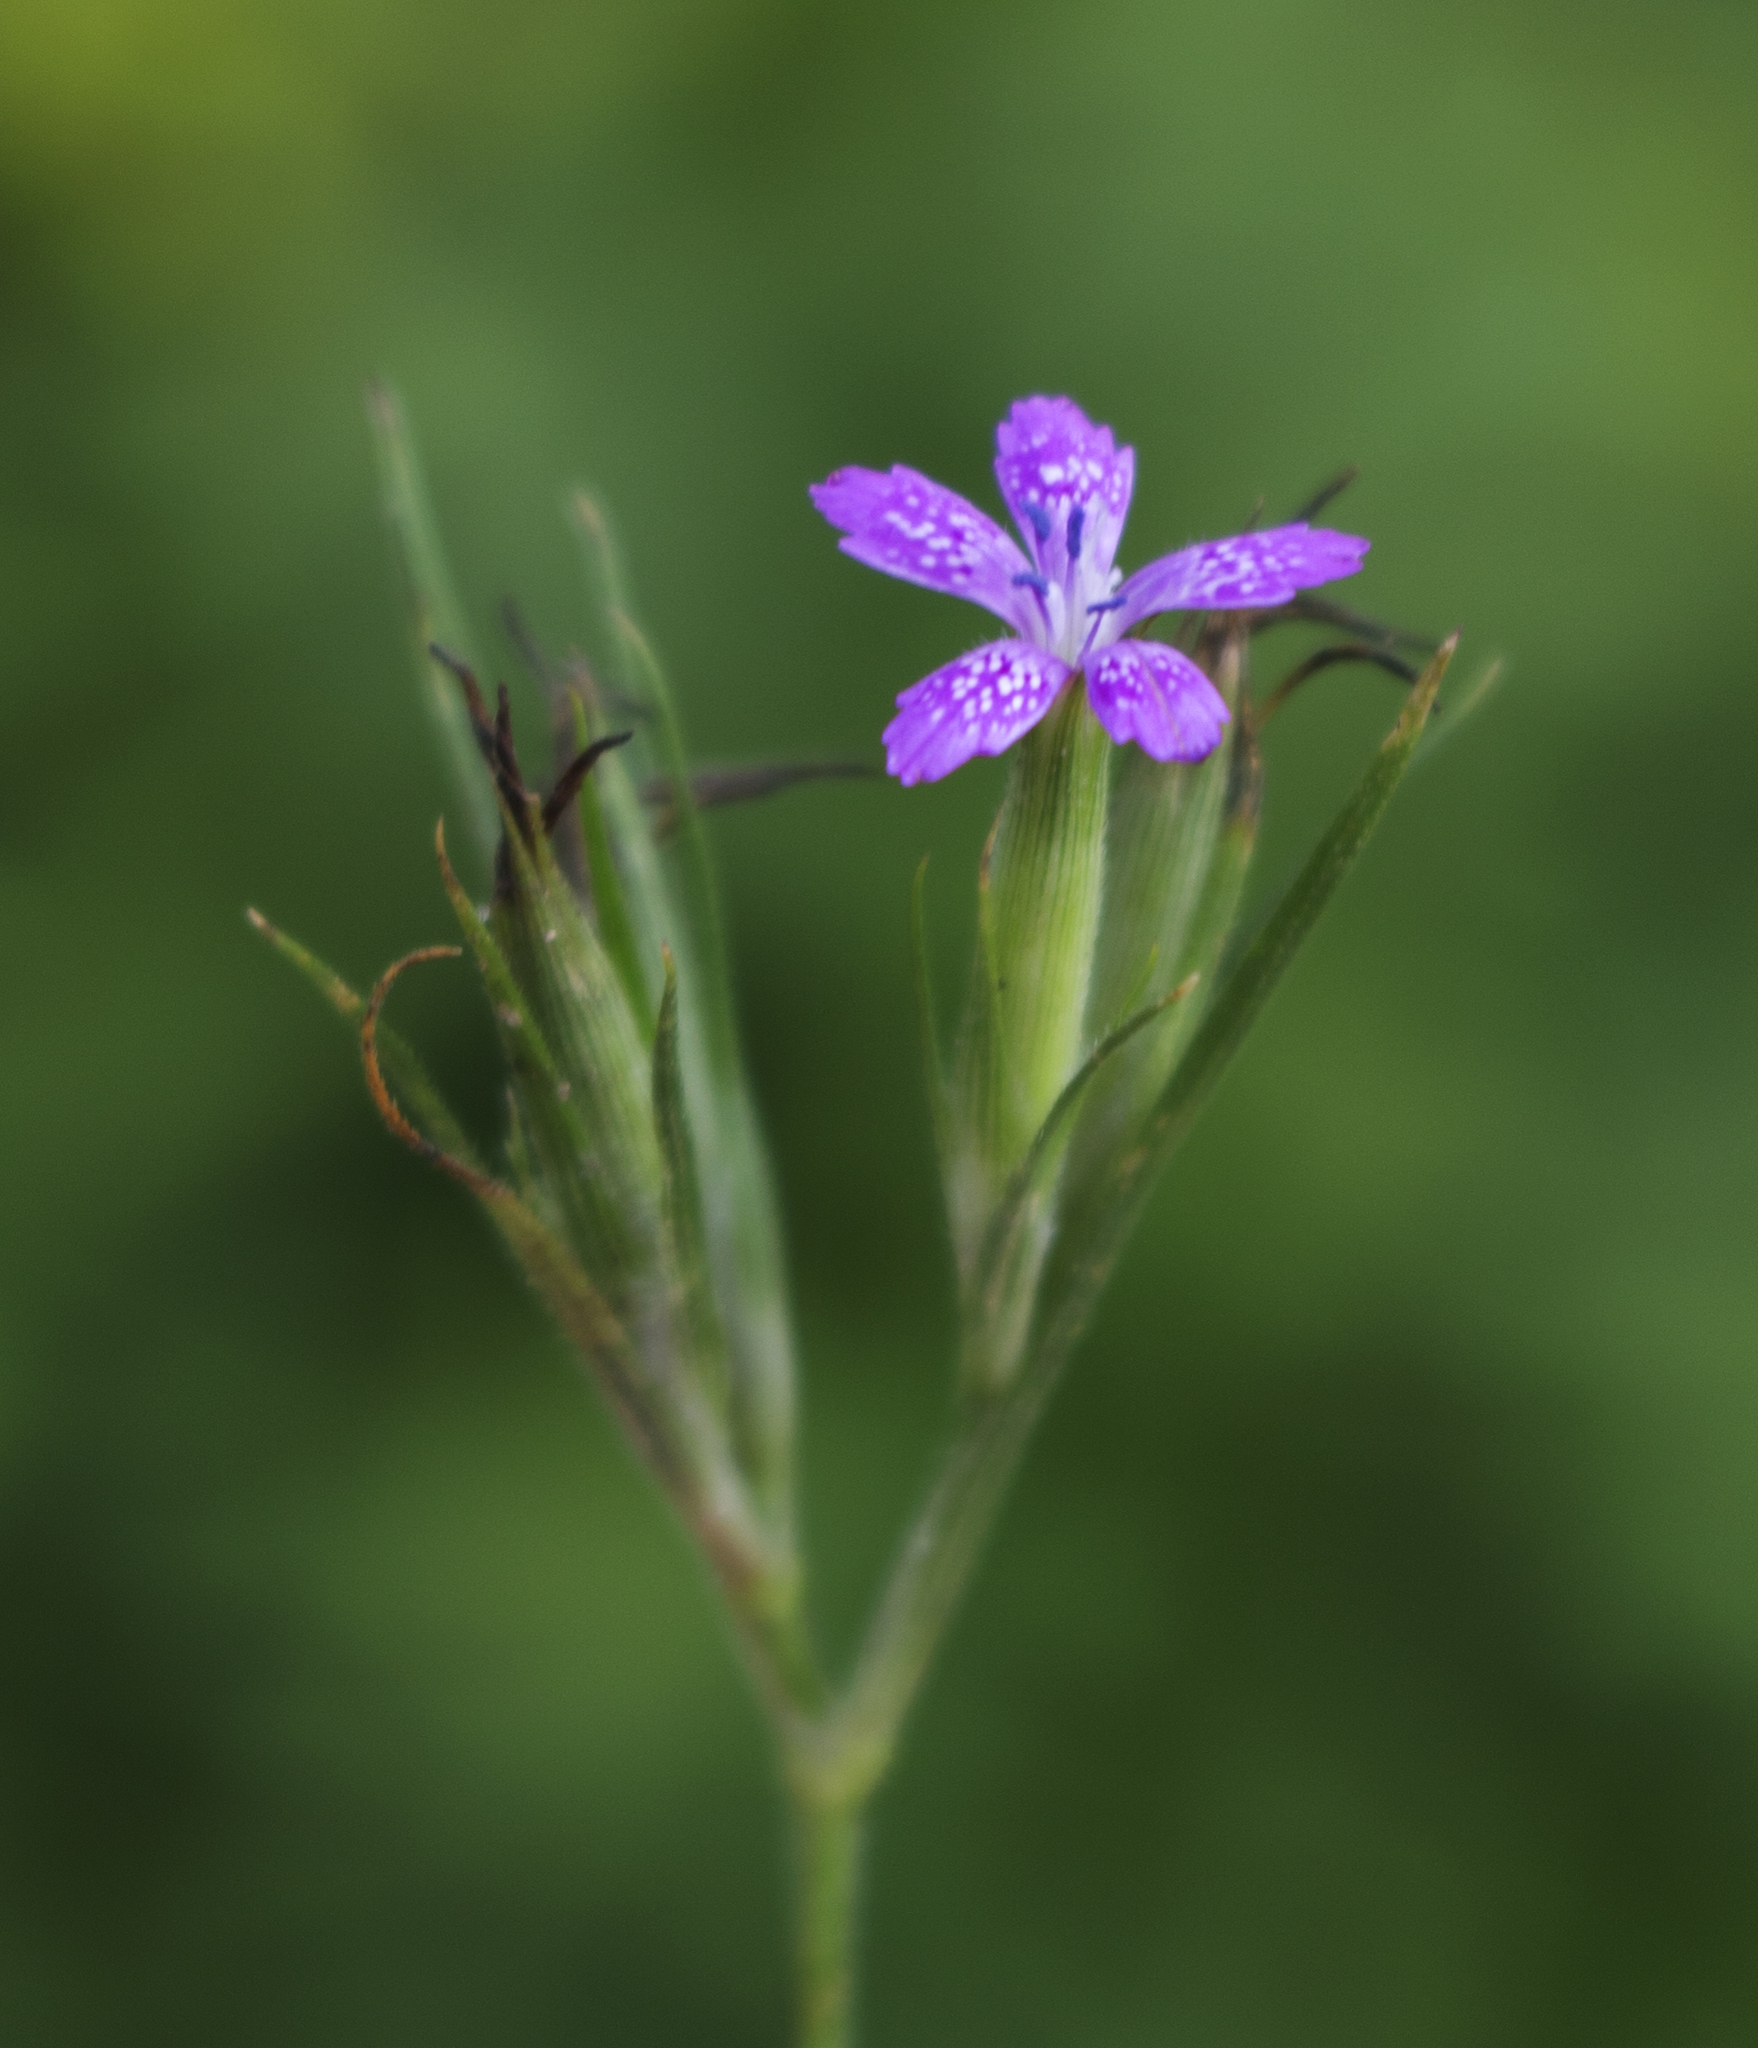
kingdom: Plantae
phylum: Tracheophyta
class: Magnoliopsida
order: Caryophyllales
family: Caryophyllaceae
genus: Dianthus
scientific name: Dianthus armeria
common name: Deptford pink
